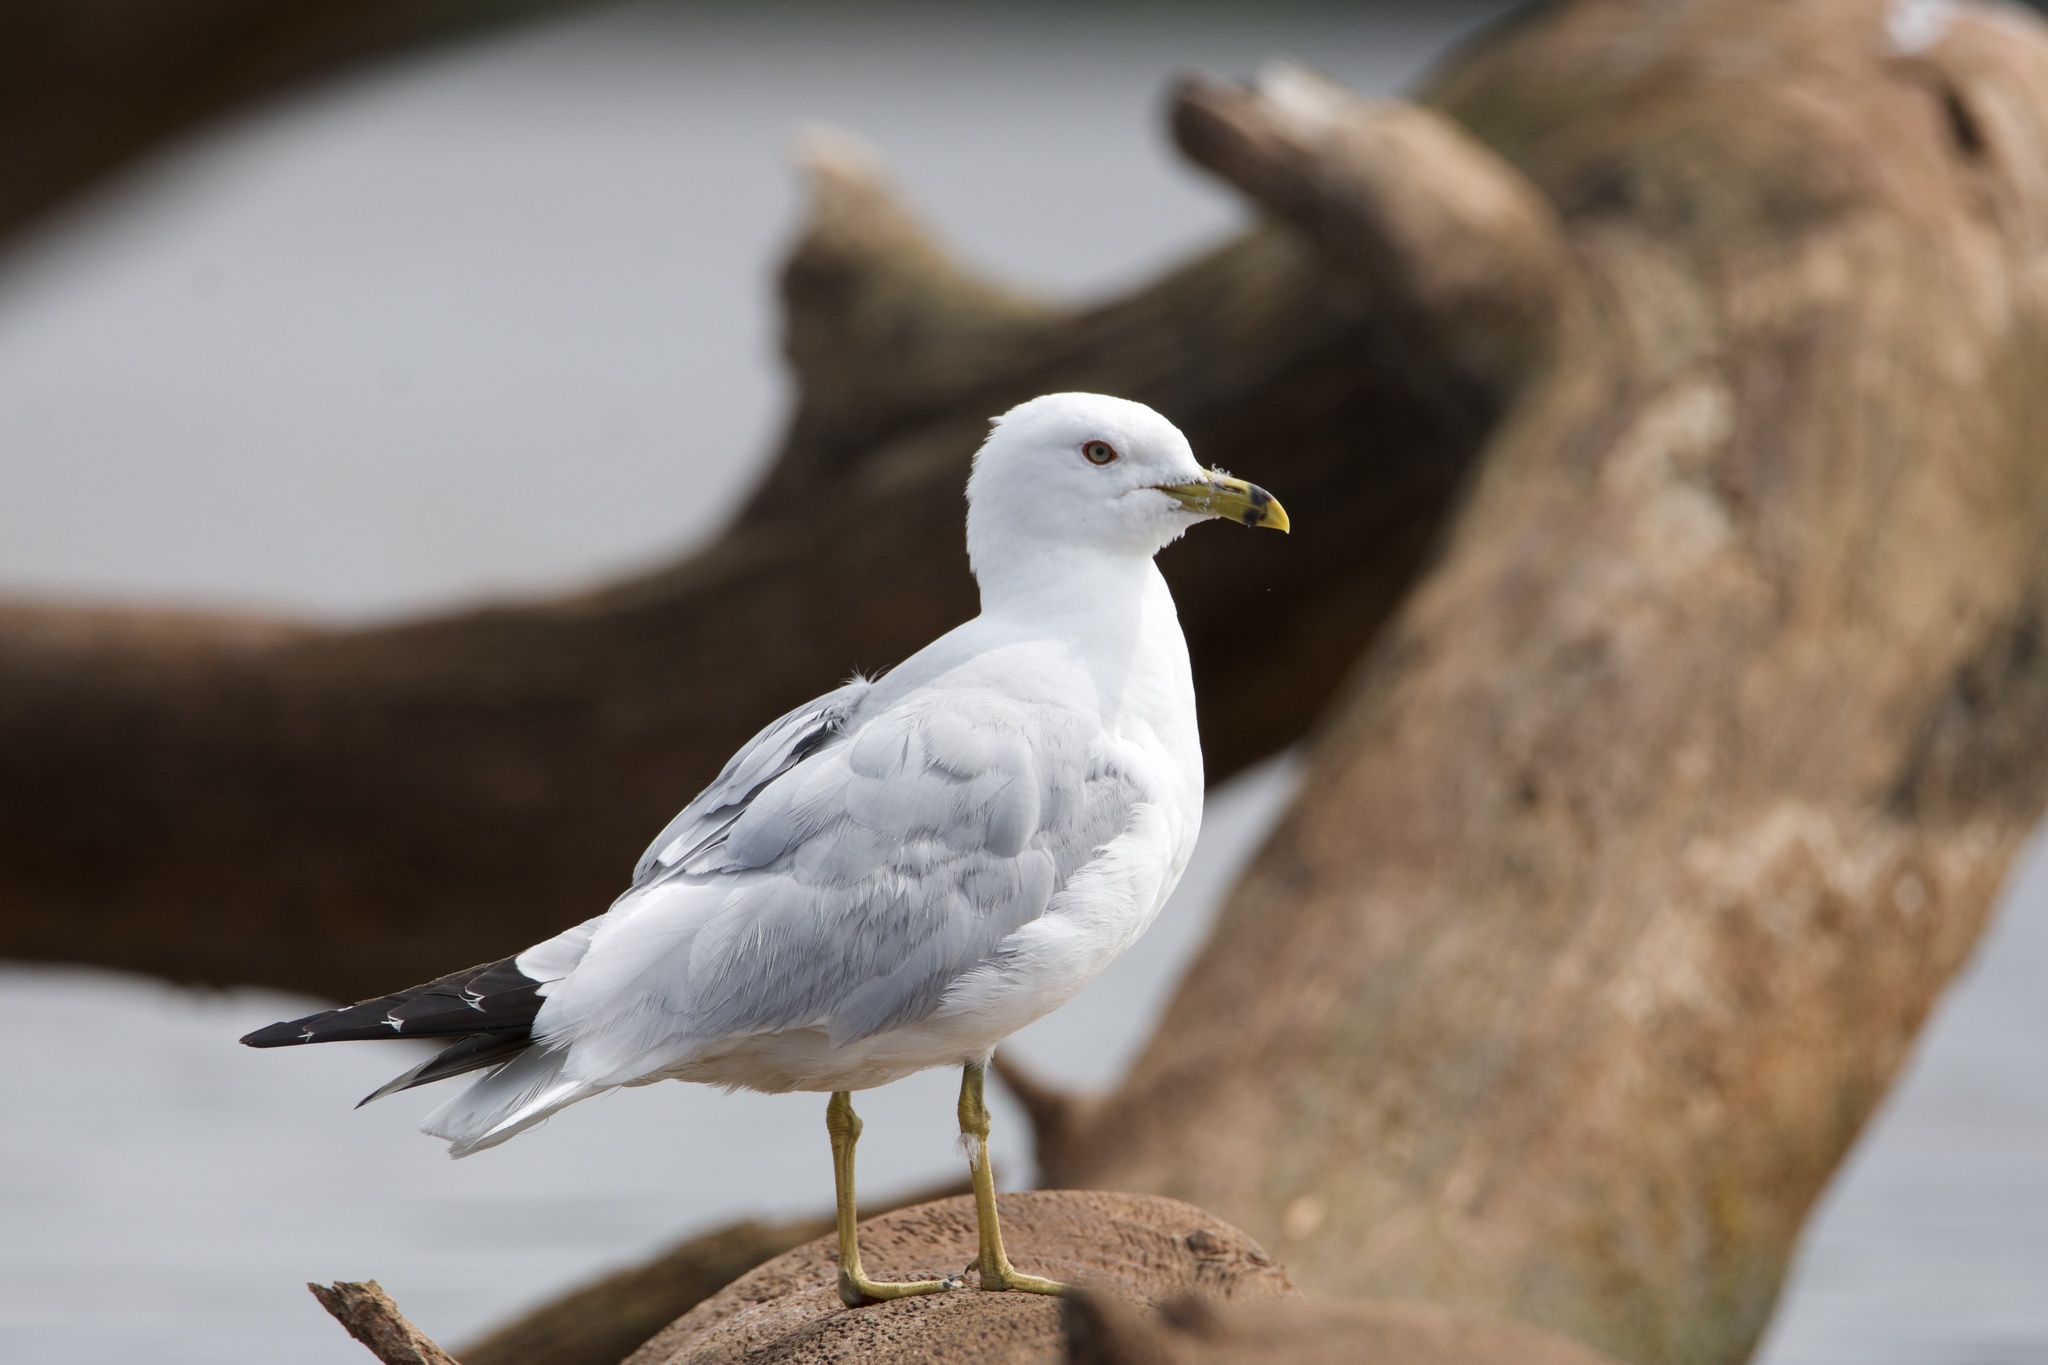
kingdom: Animalia
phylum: Chordata
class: Aves
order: Charadriiformes
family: Laridae
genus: Larus
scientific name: Larus delawarensis
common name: Ring-billed gull
